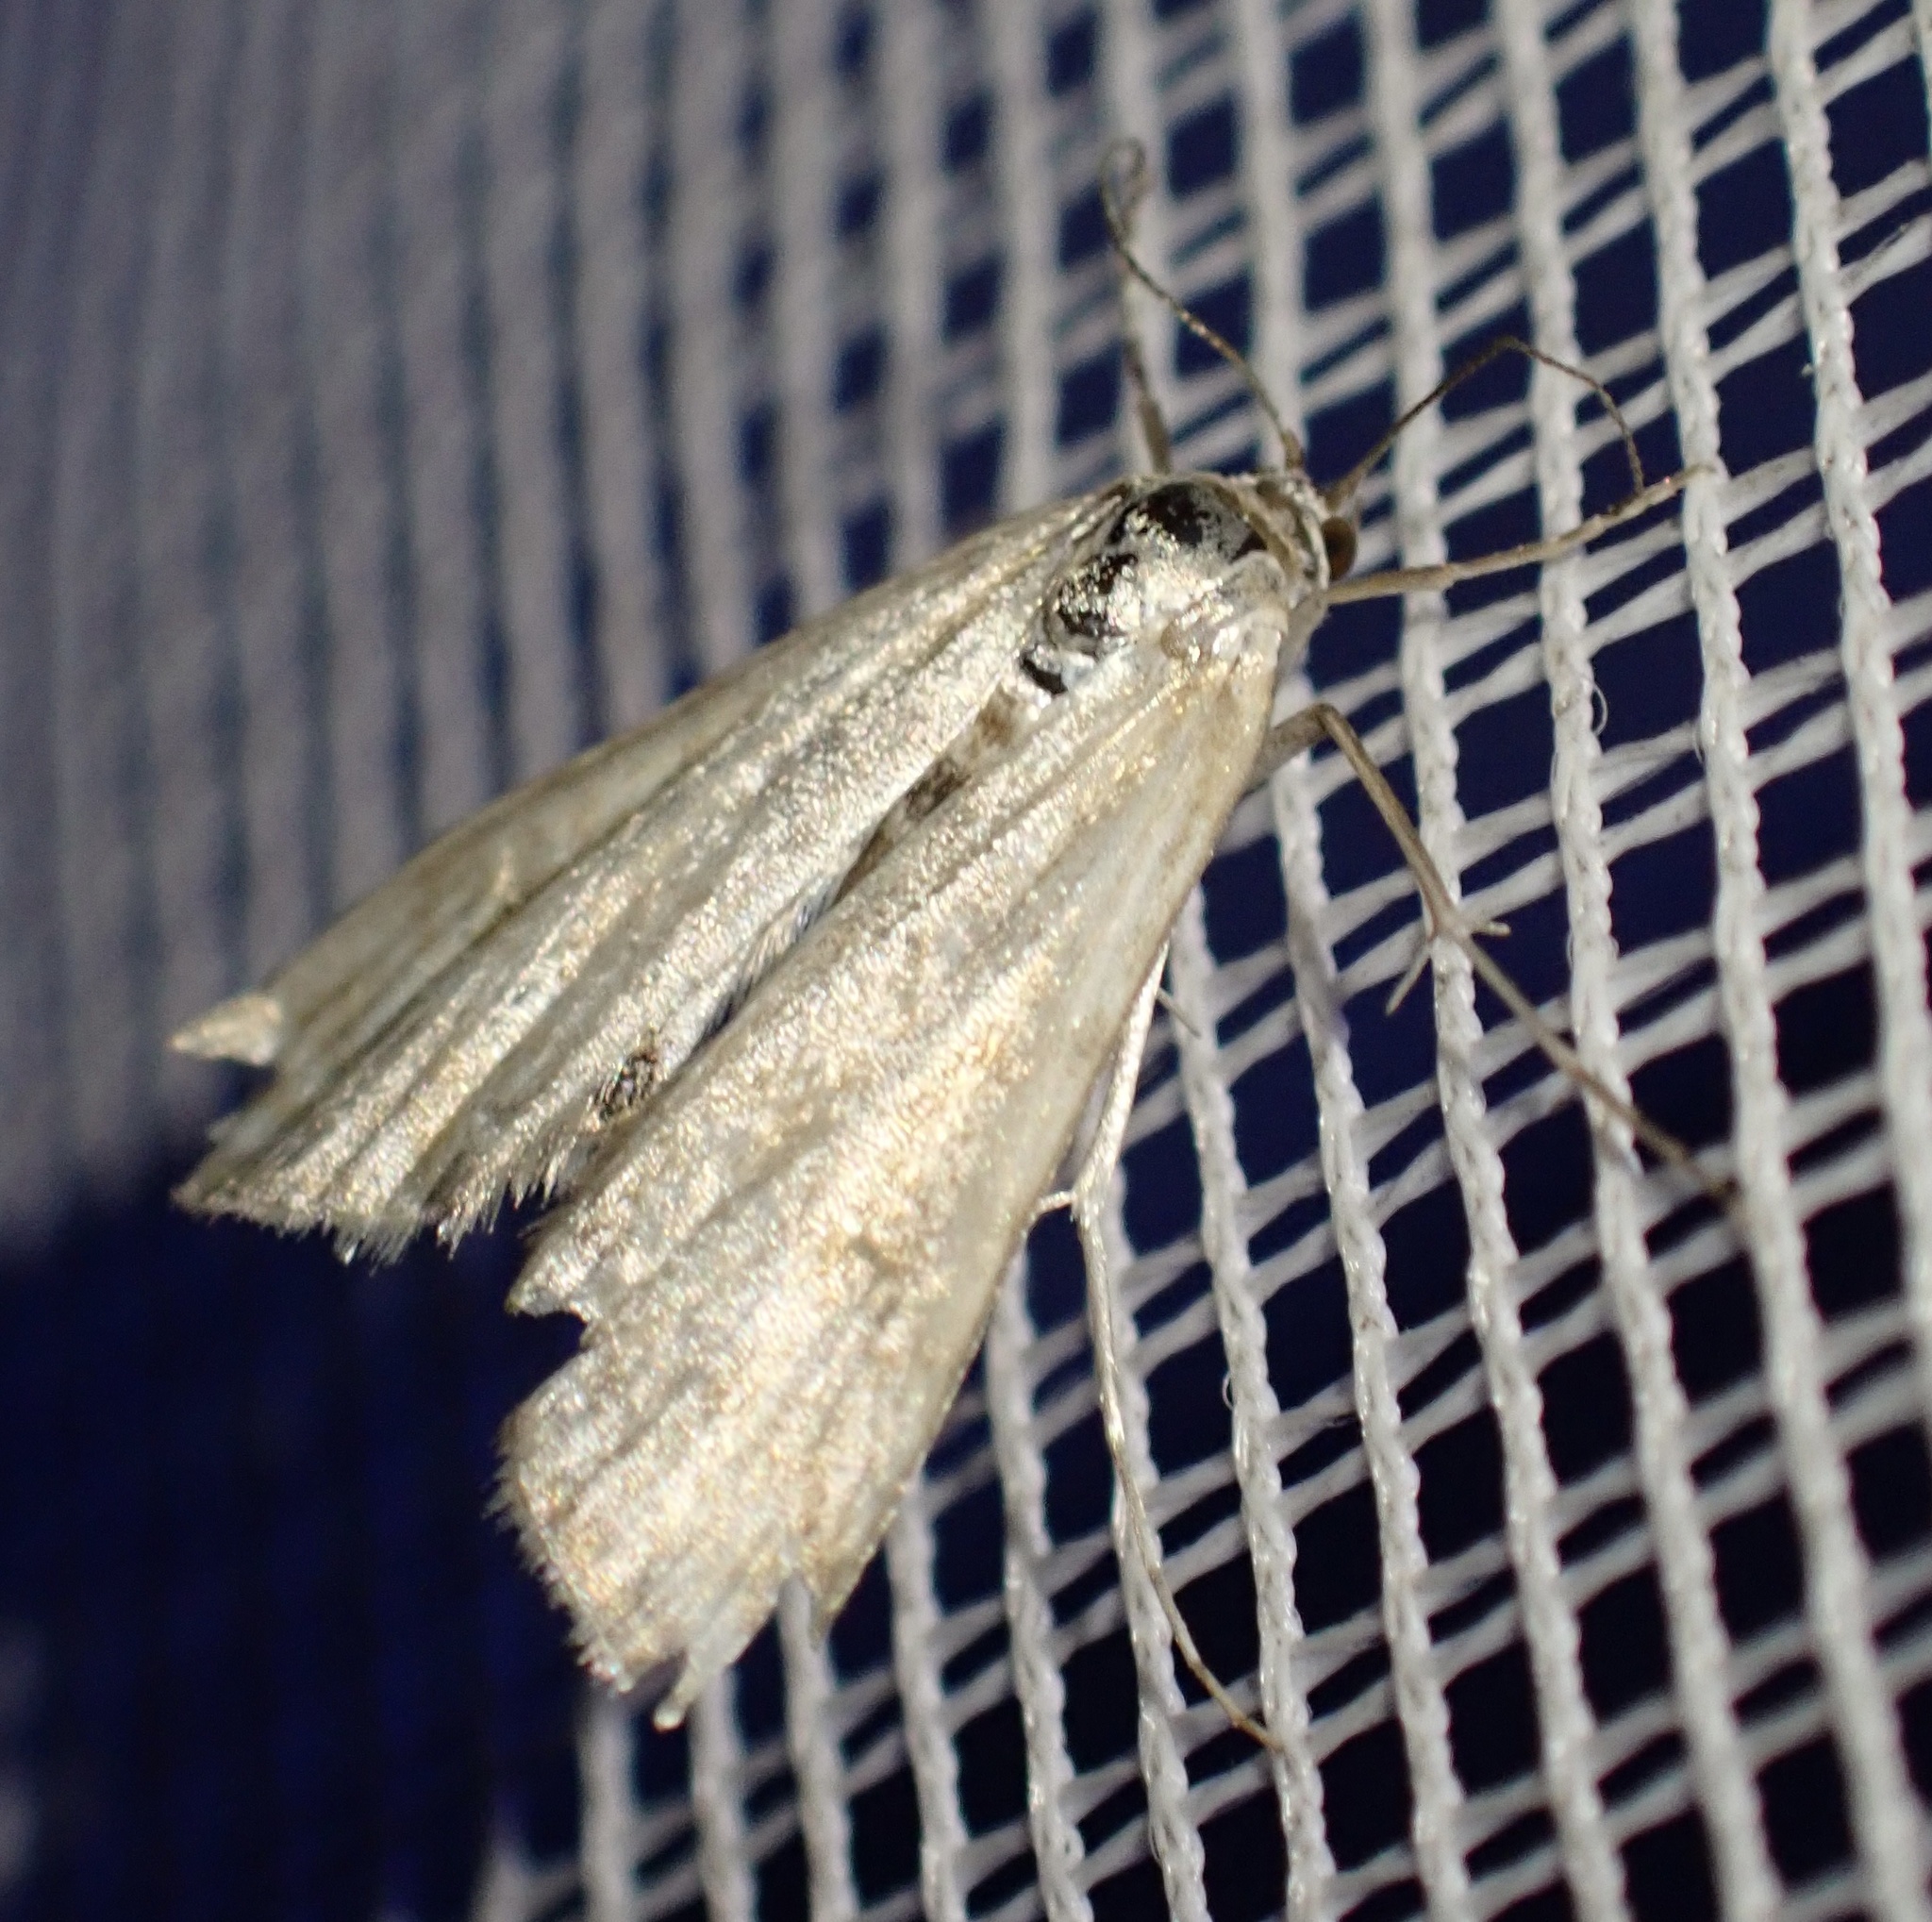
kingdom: Animalia
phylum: Arthropoda
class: Insecta
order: Lepidoptera
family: Crambidae
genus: Cataclysta
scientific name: Cataclysta lemnata
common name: Small china-mark
